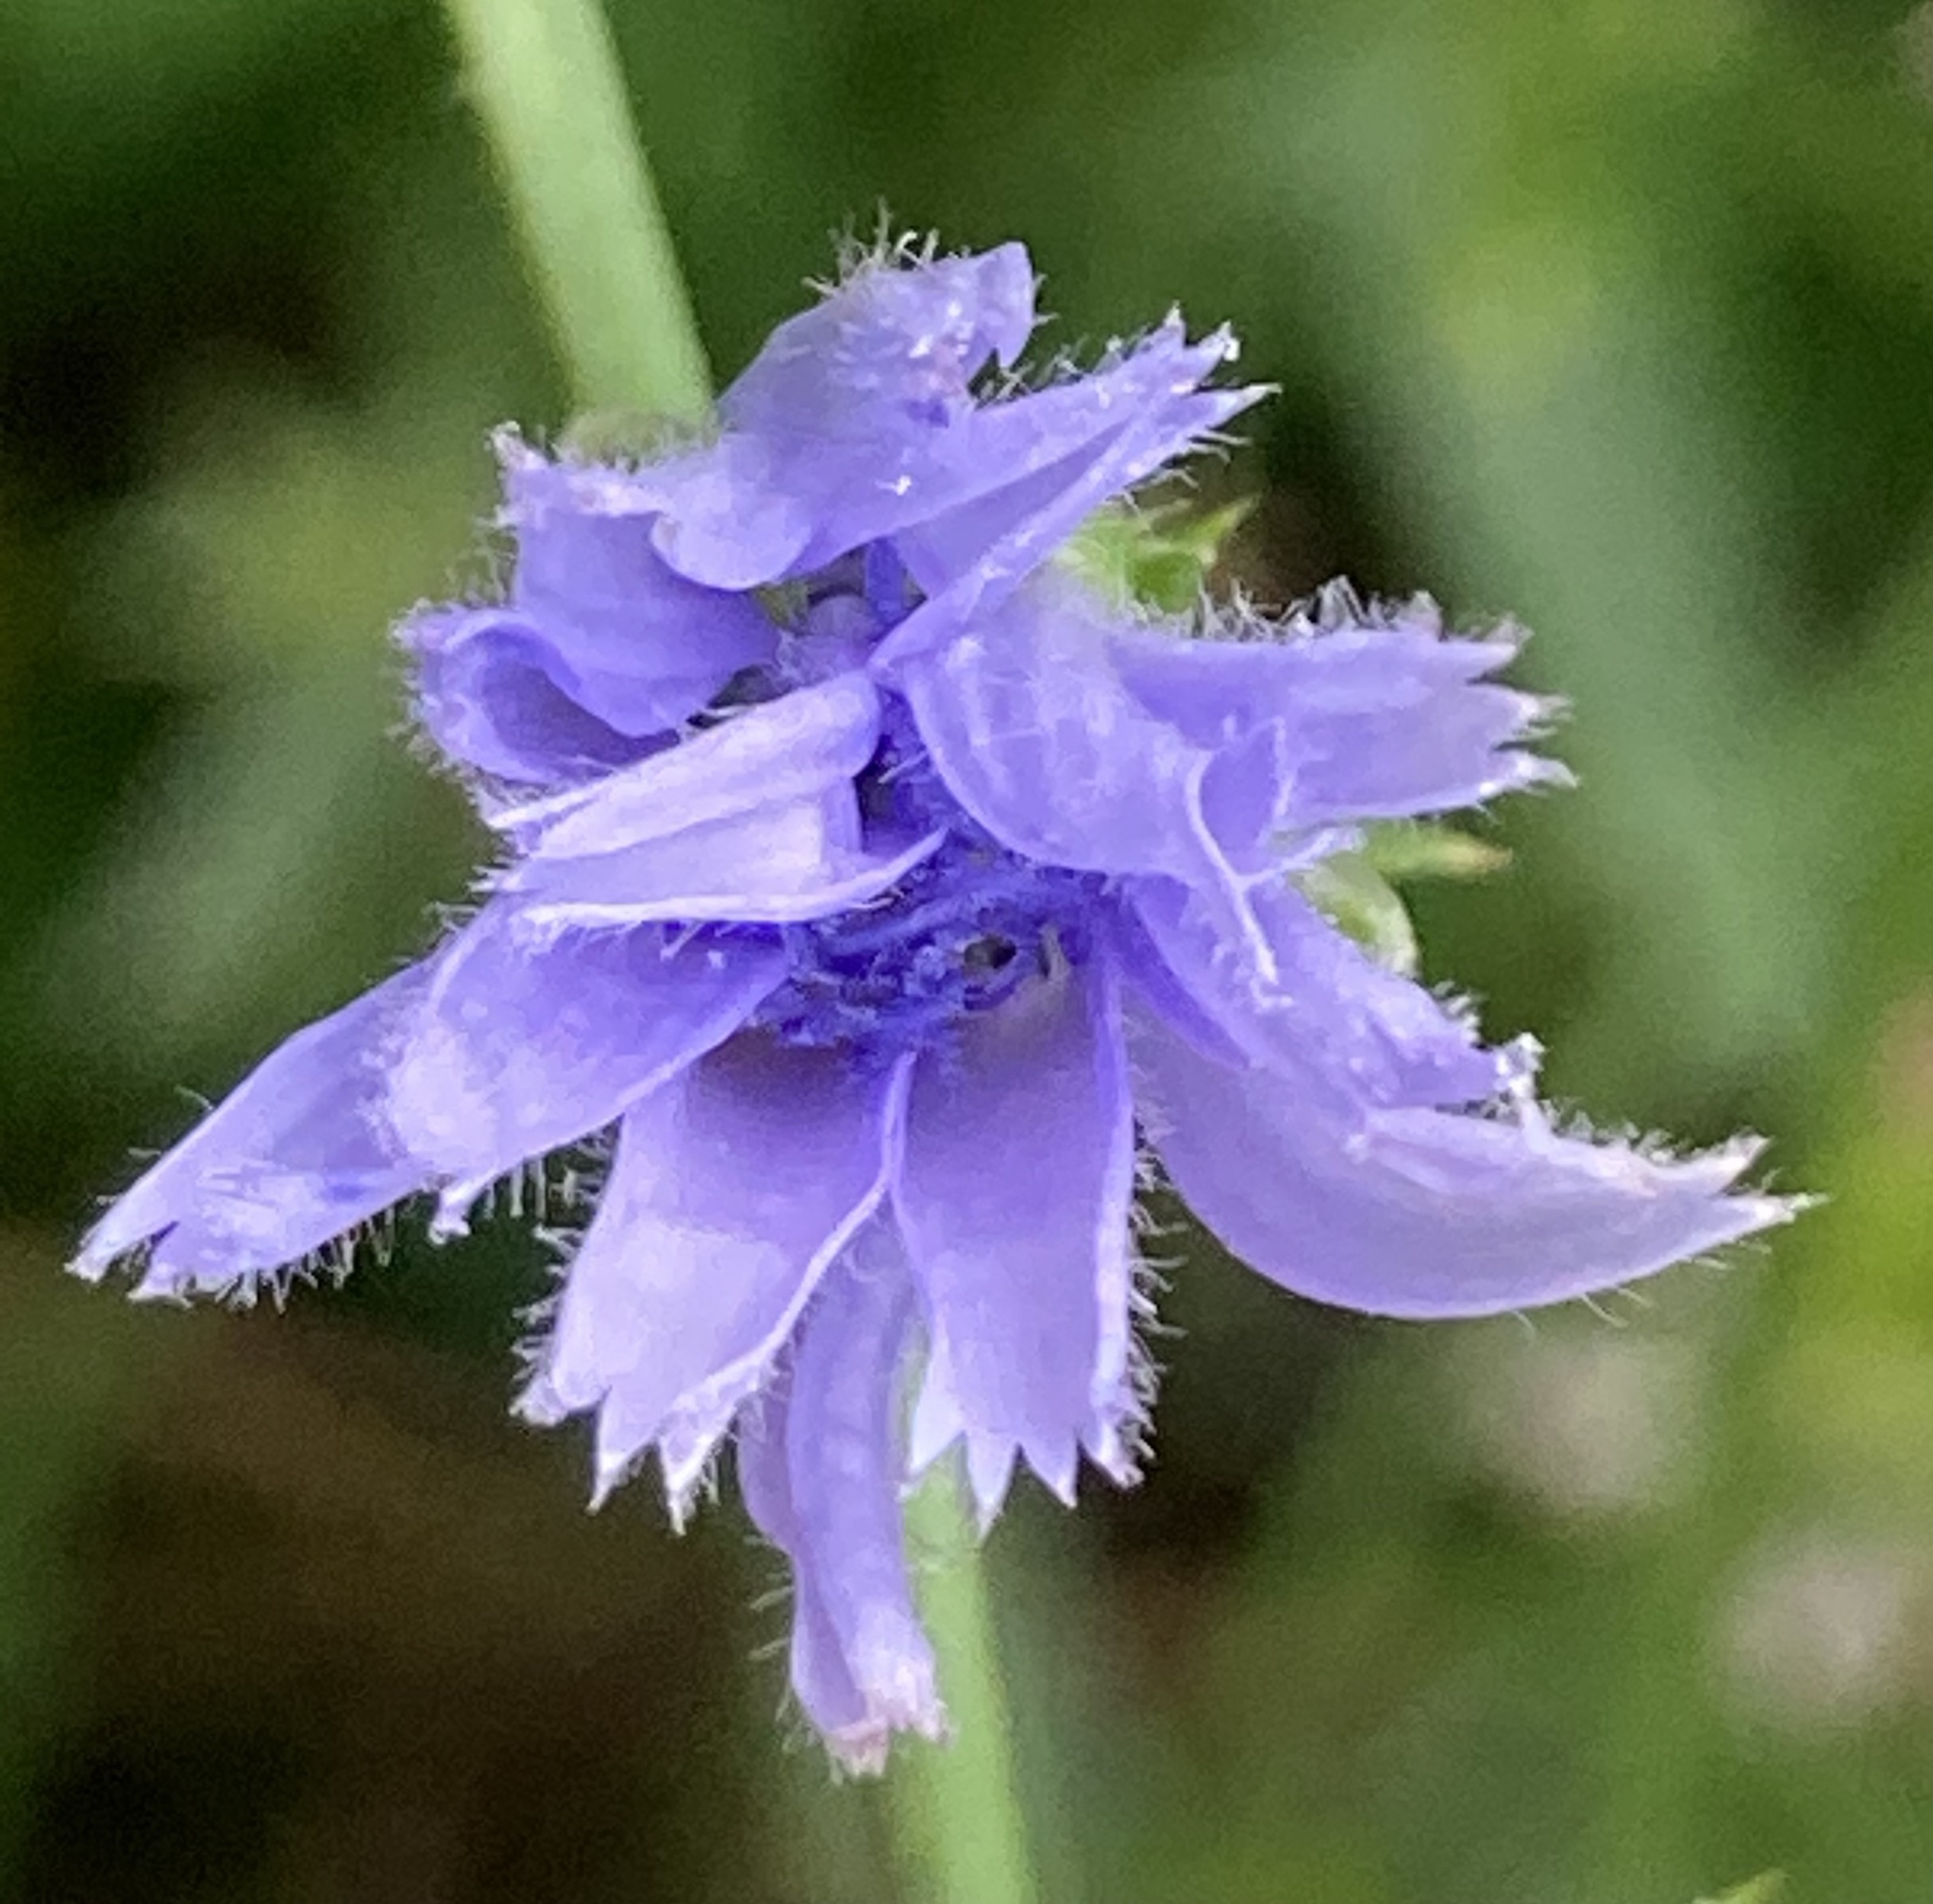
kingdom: Plantae
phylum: Tracheophyta
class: Magnoliopsida
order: Asterales
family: Asteraceae
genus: Cichorium
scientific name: Cichorium intybus
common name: Chicory
